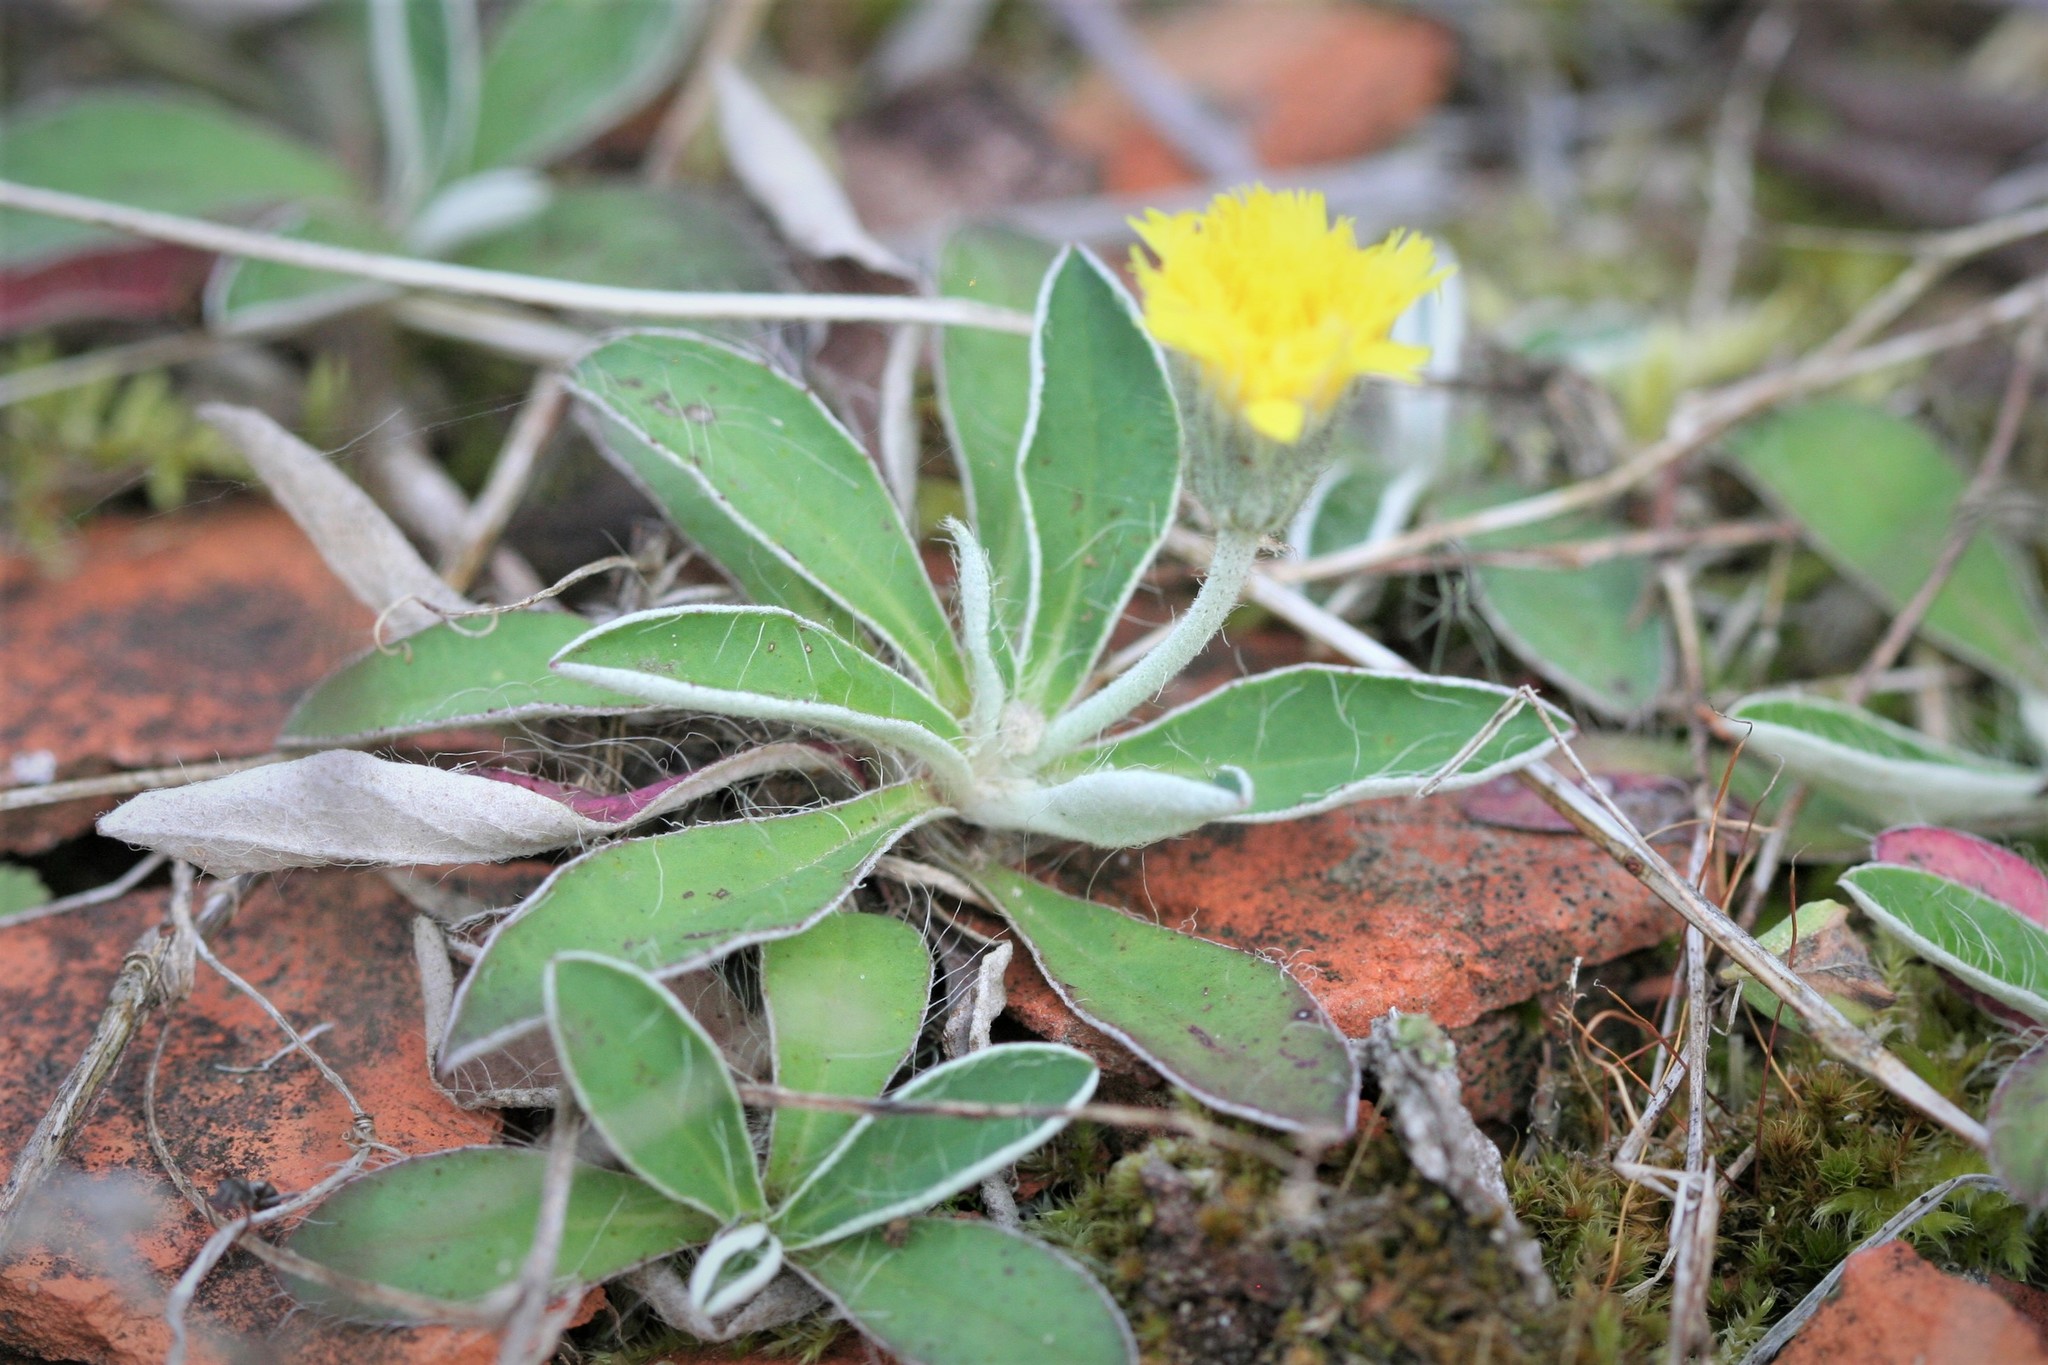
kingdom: Plantae
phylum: Tracheophyta
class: Magnoliopsida
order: Asterales
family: Asteraceae
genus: Pilosella
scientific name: Pilosella officinarum
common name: Mouse-ear hawkweed
